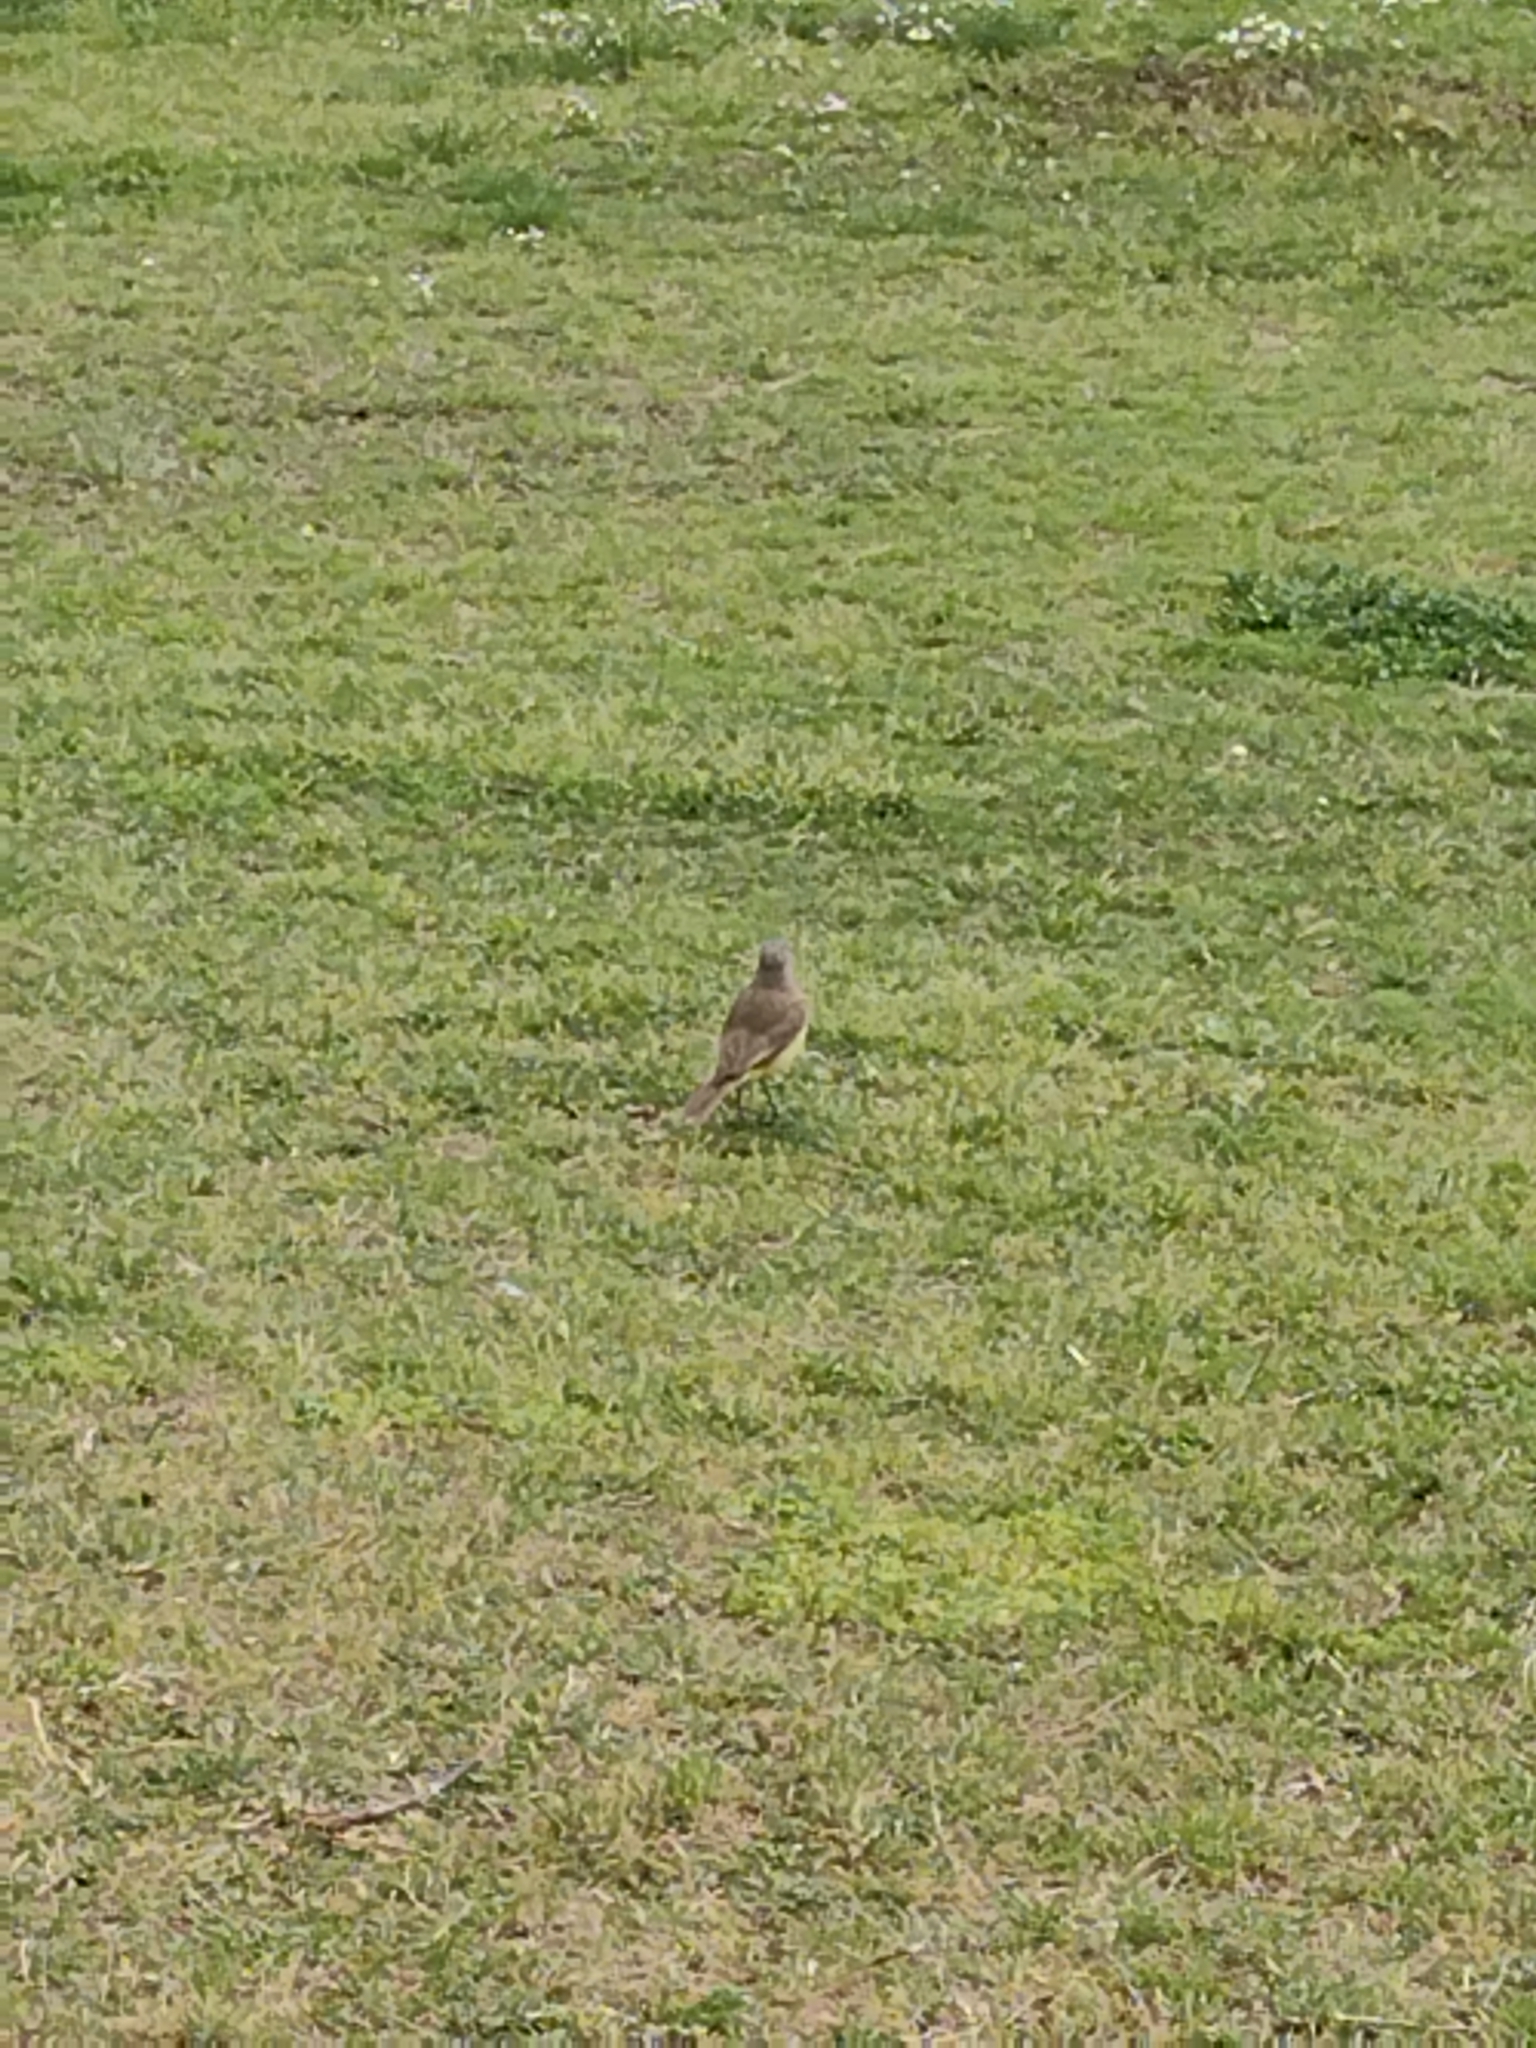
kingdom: Animalia
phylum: Chordata
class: Aves
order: Passeriformes
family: Tyrannidae
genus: Machetornis
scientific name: Machetornis rixosa
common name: Cattle tyrant
